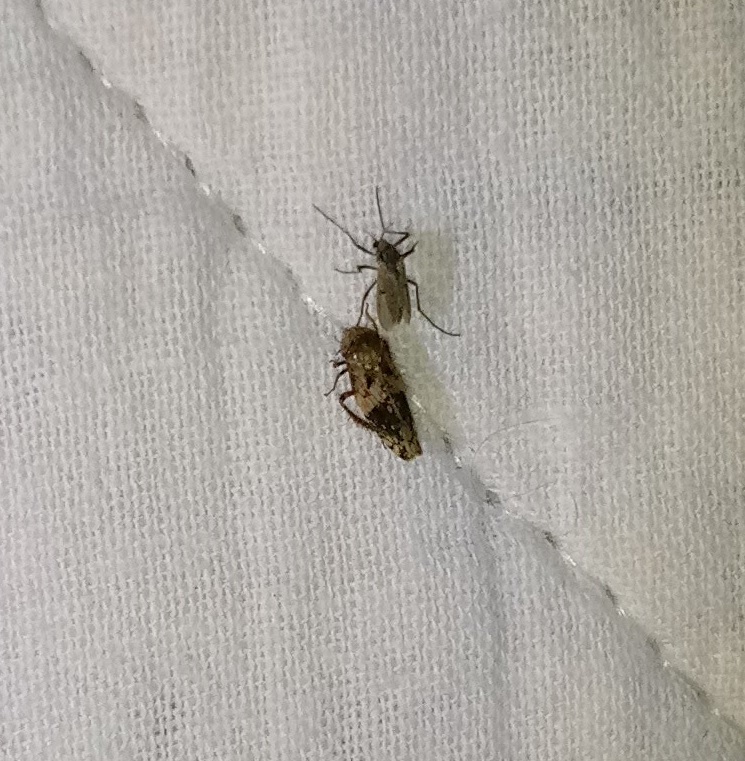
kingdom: Animalia
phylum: Arthropoda
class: Insecta
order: Hemiptera
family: Cicadellidae
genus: Menosoma
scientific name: Menosoma cinctum
